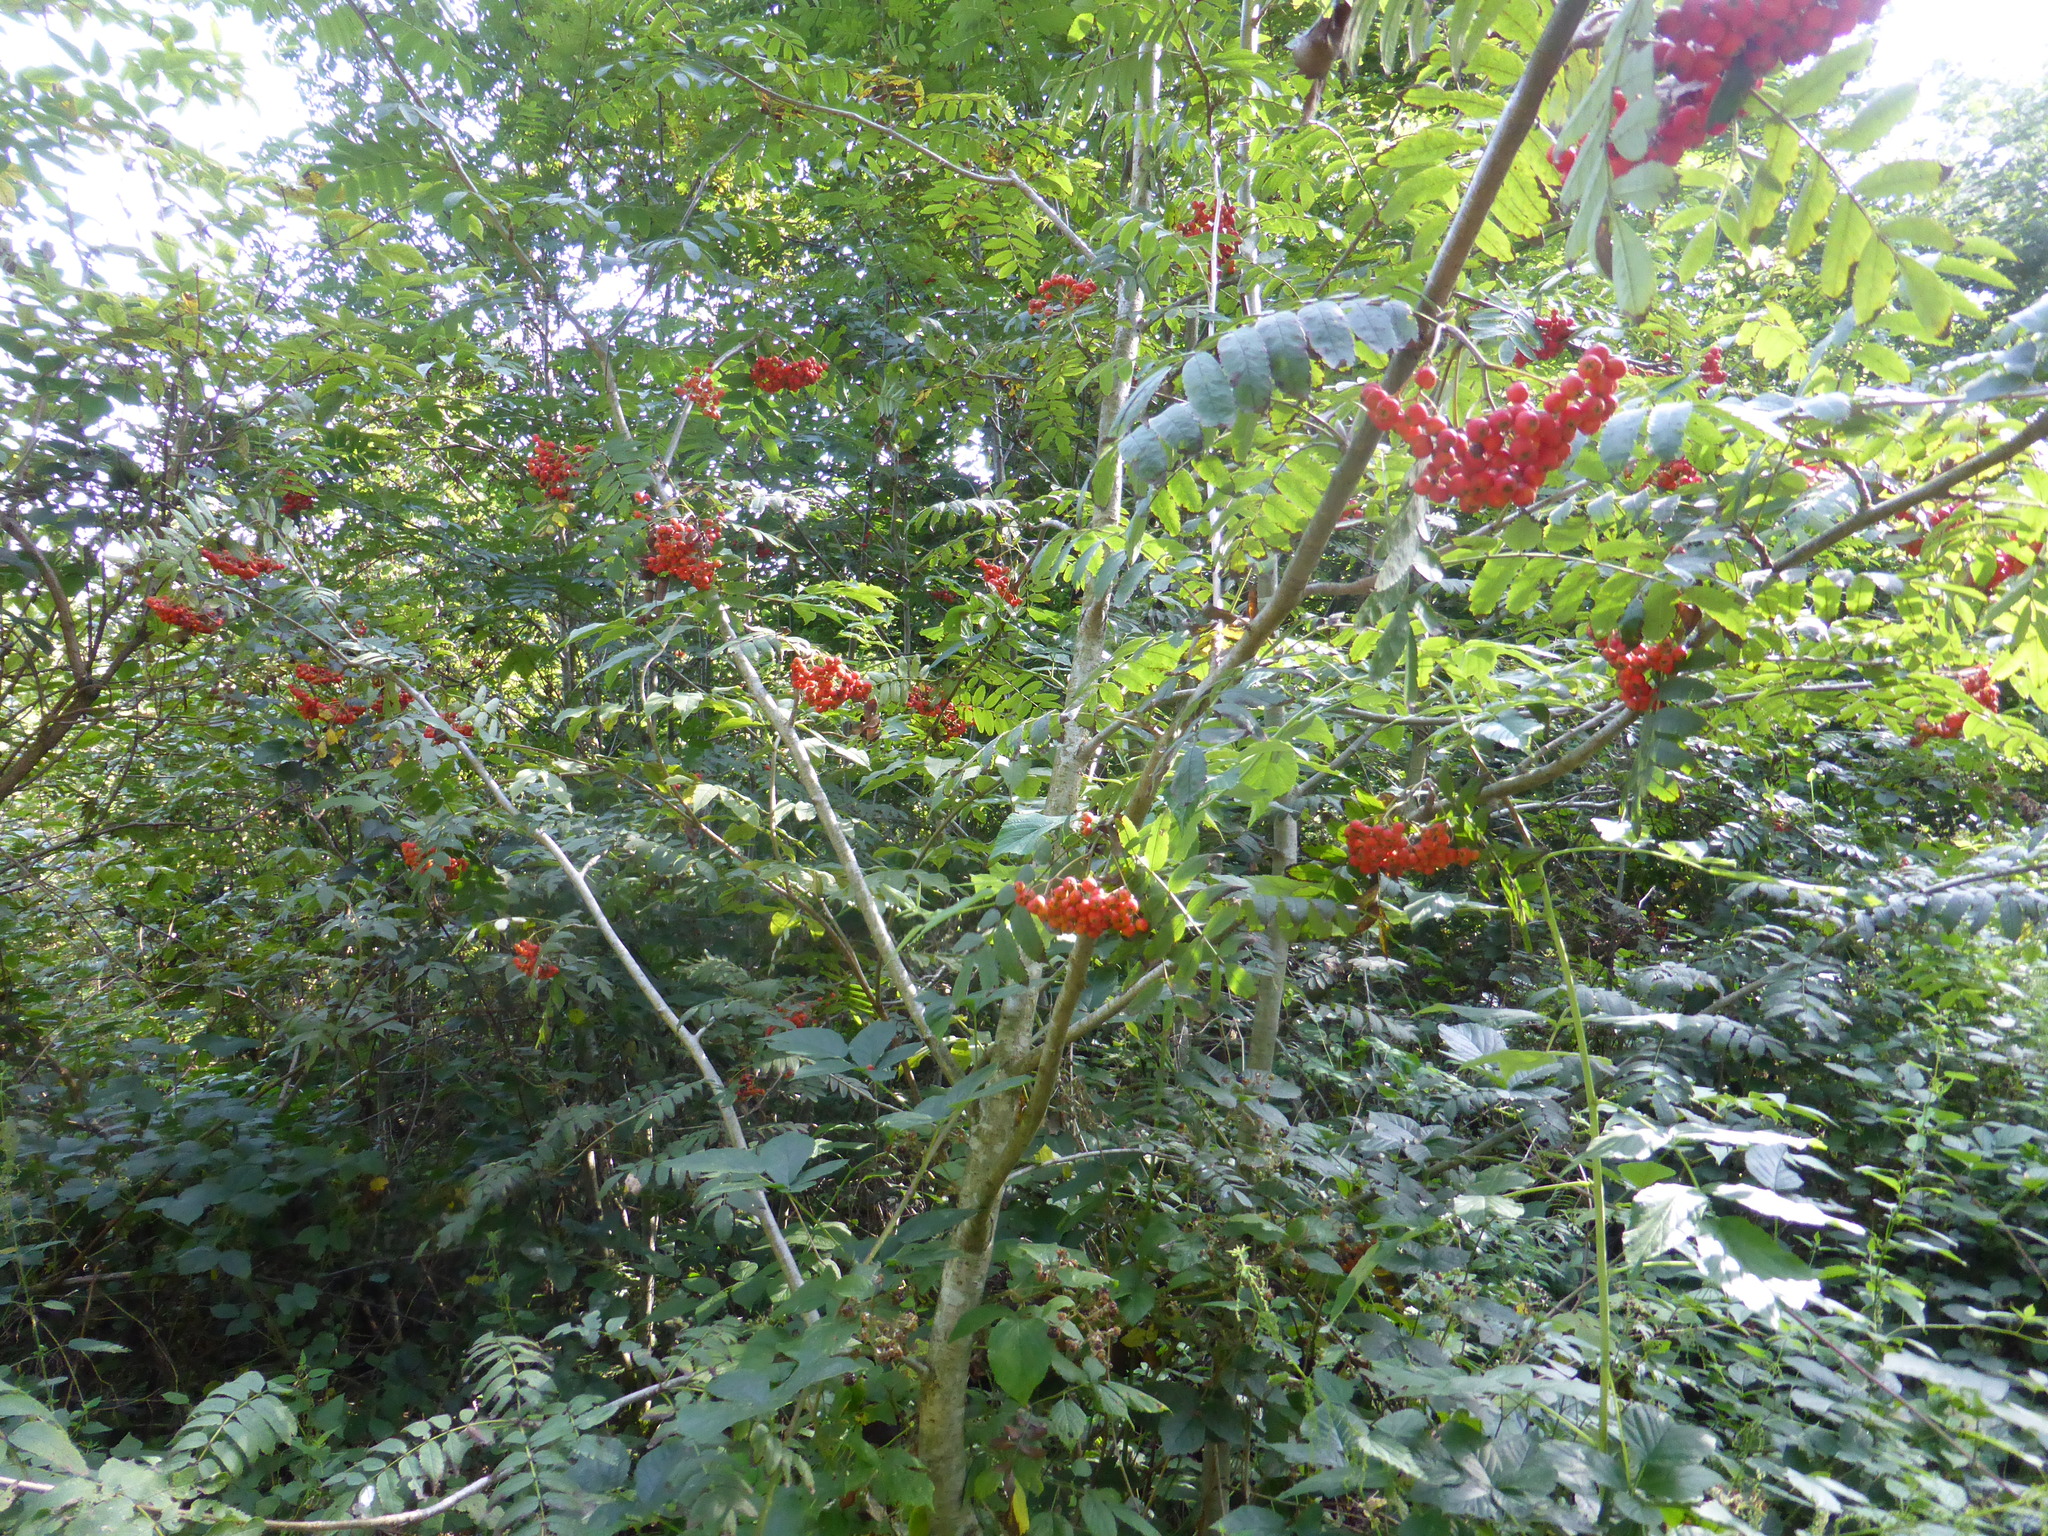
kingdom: Plantae
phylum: Tracheophyta
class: Magnoliopsida
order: Rosales
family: Rosaceae
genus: Sorbus
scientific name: Sorbus aucuparia
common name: Rowan
